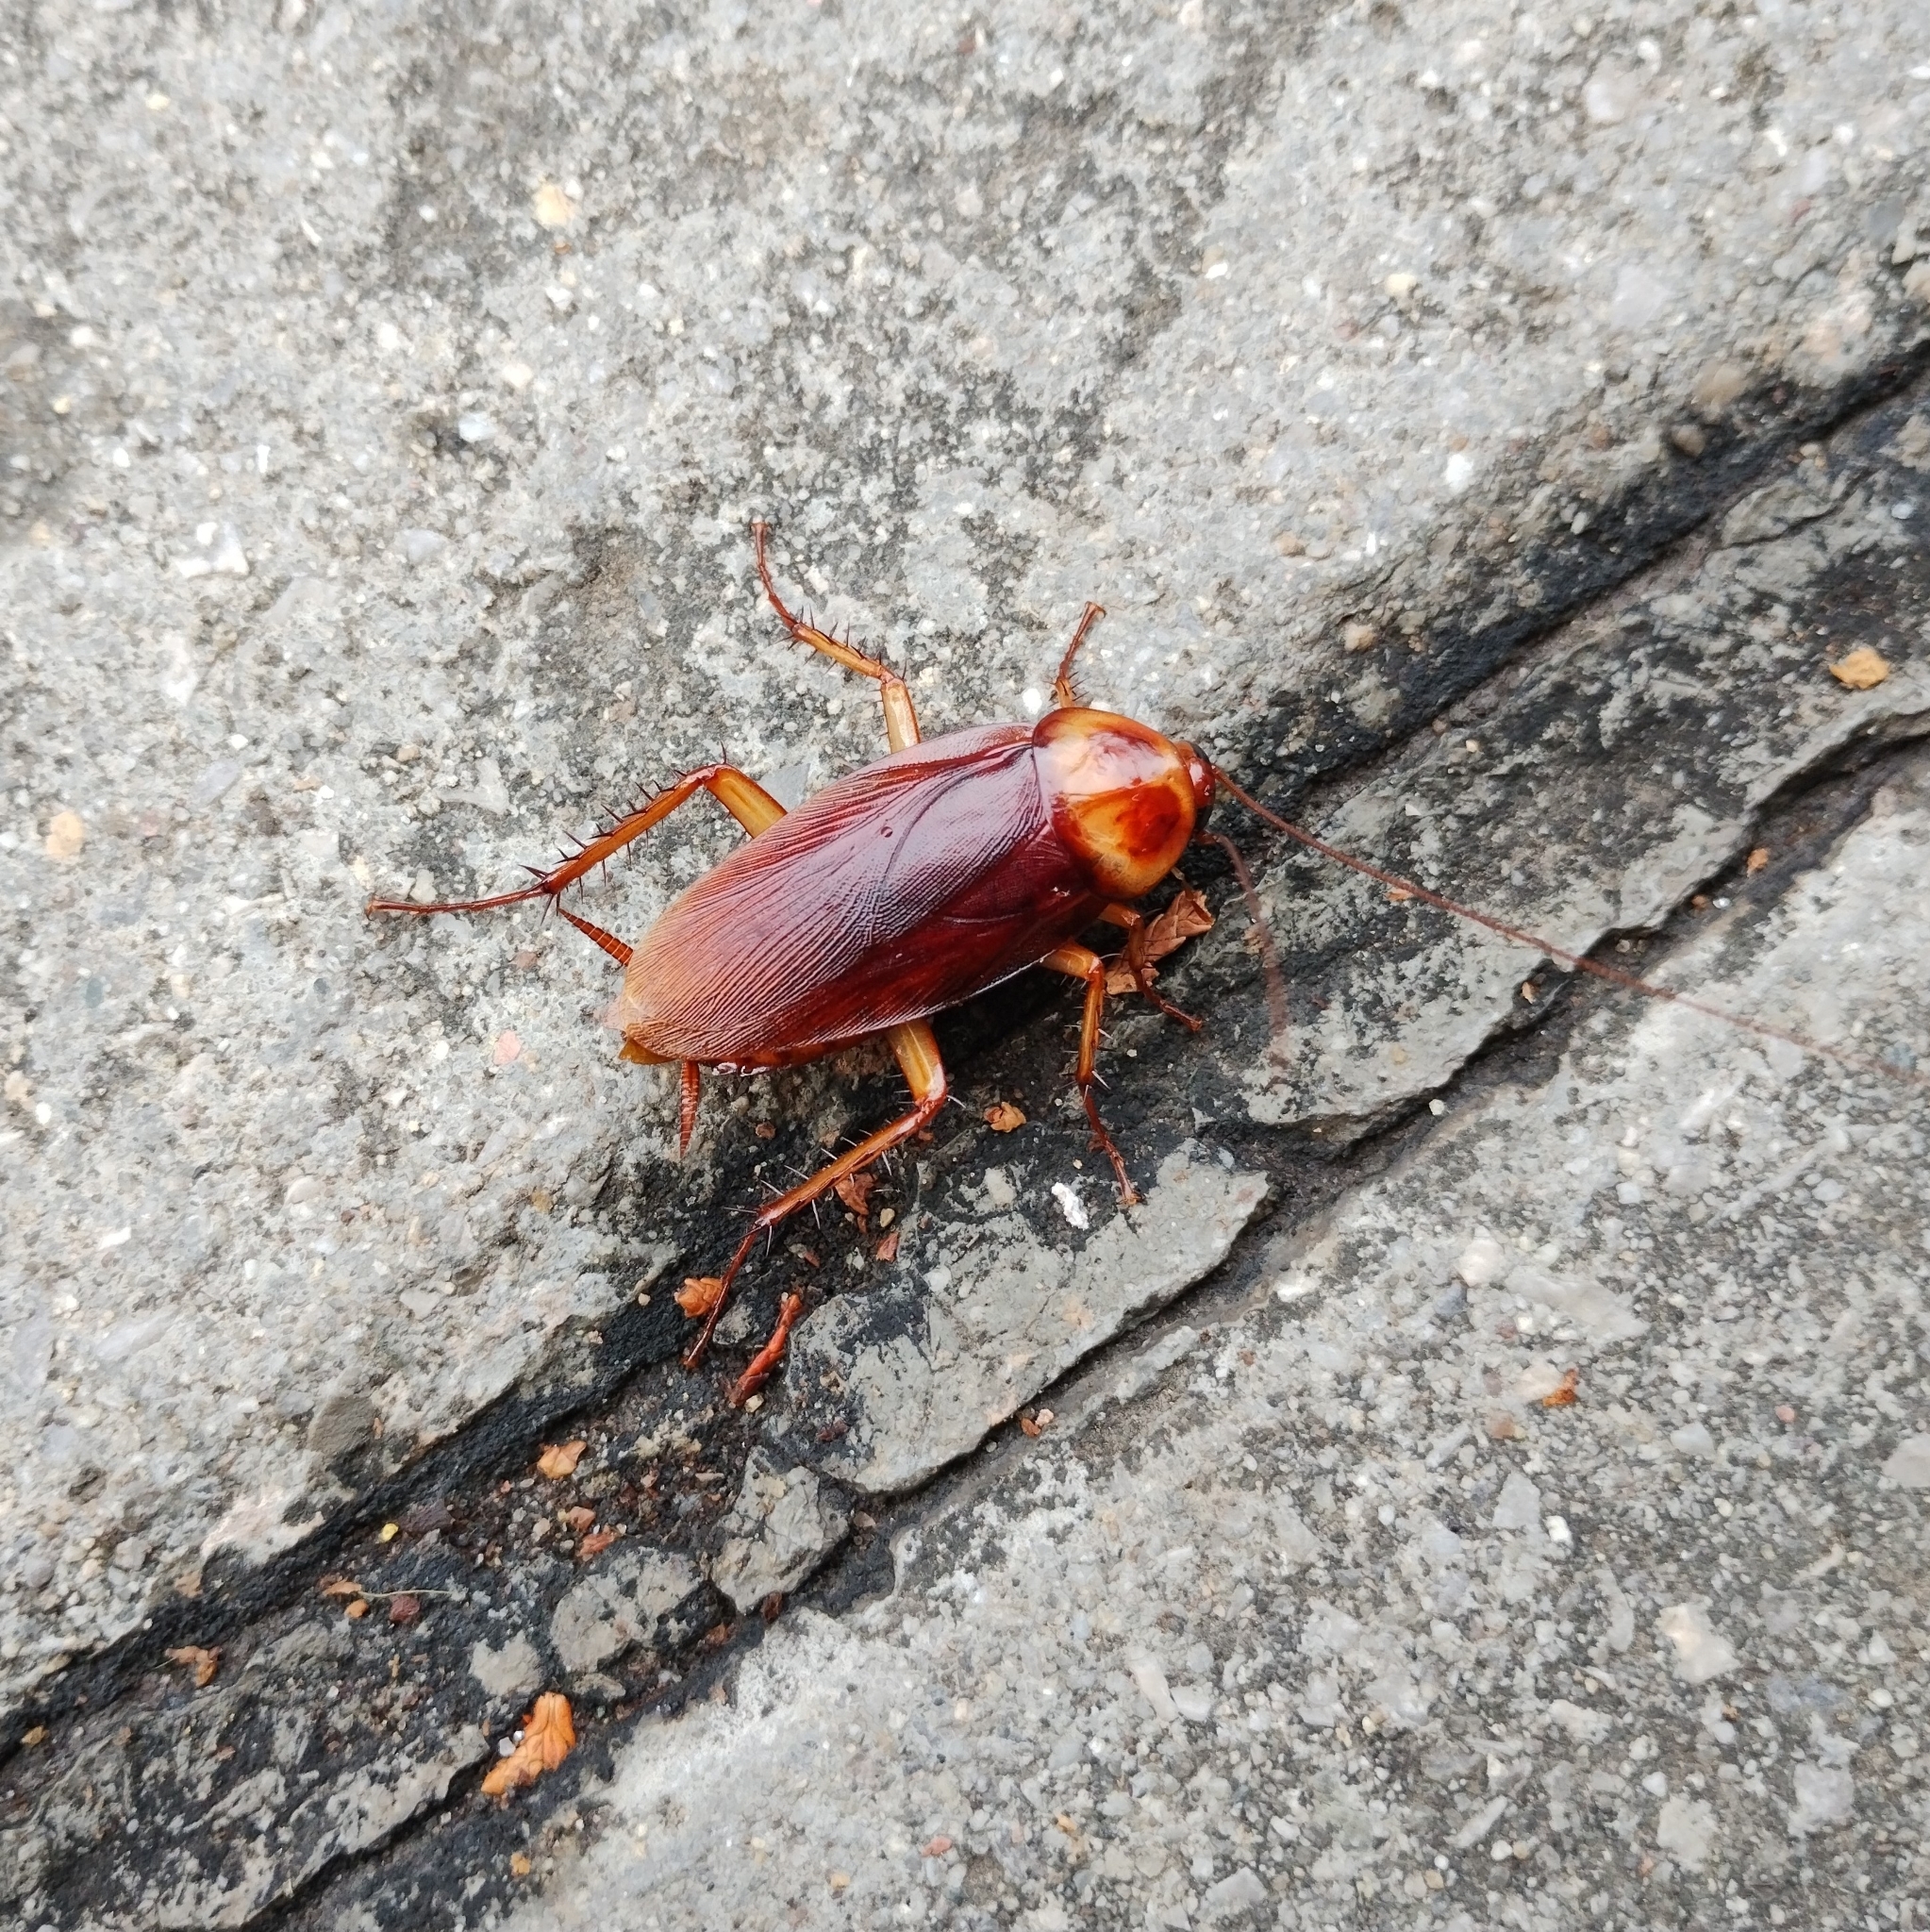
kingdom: Animalia
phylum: Arthropoda
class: Insecta
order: Blattodea
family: Blattidae
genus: Periplaneta
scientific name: Periplaneta americana
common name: American cockroach
